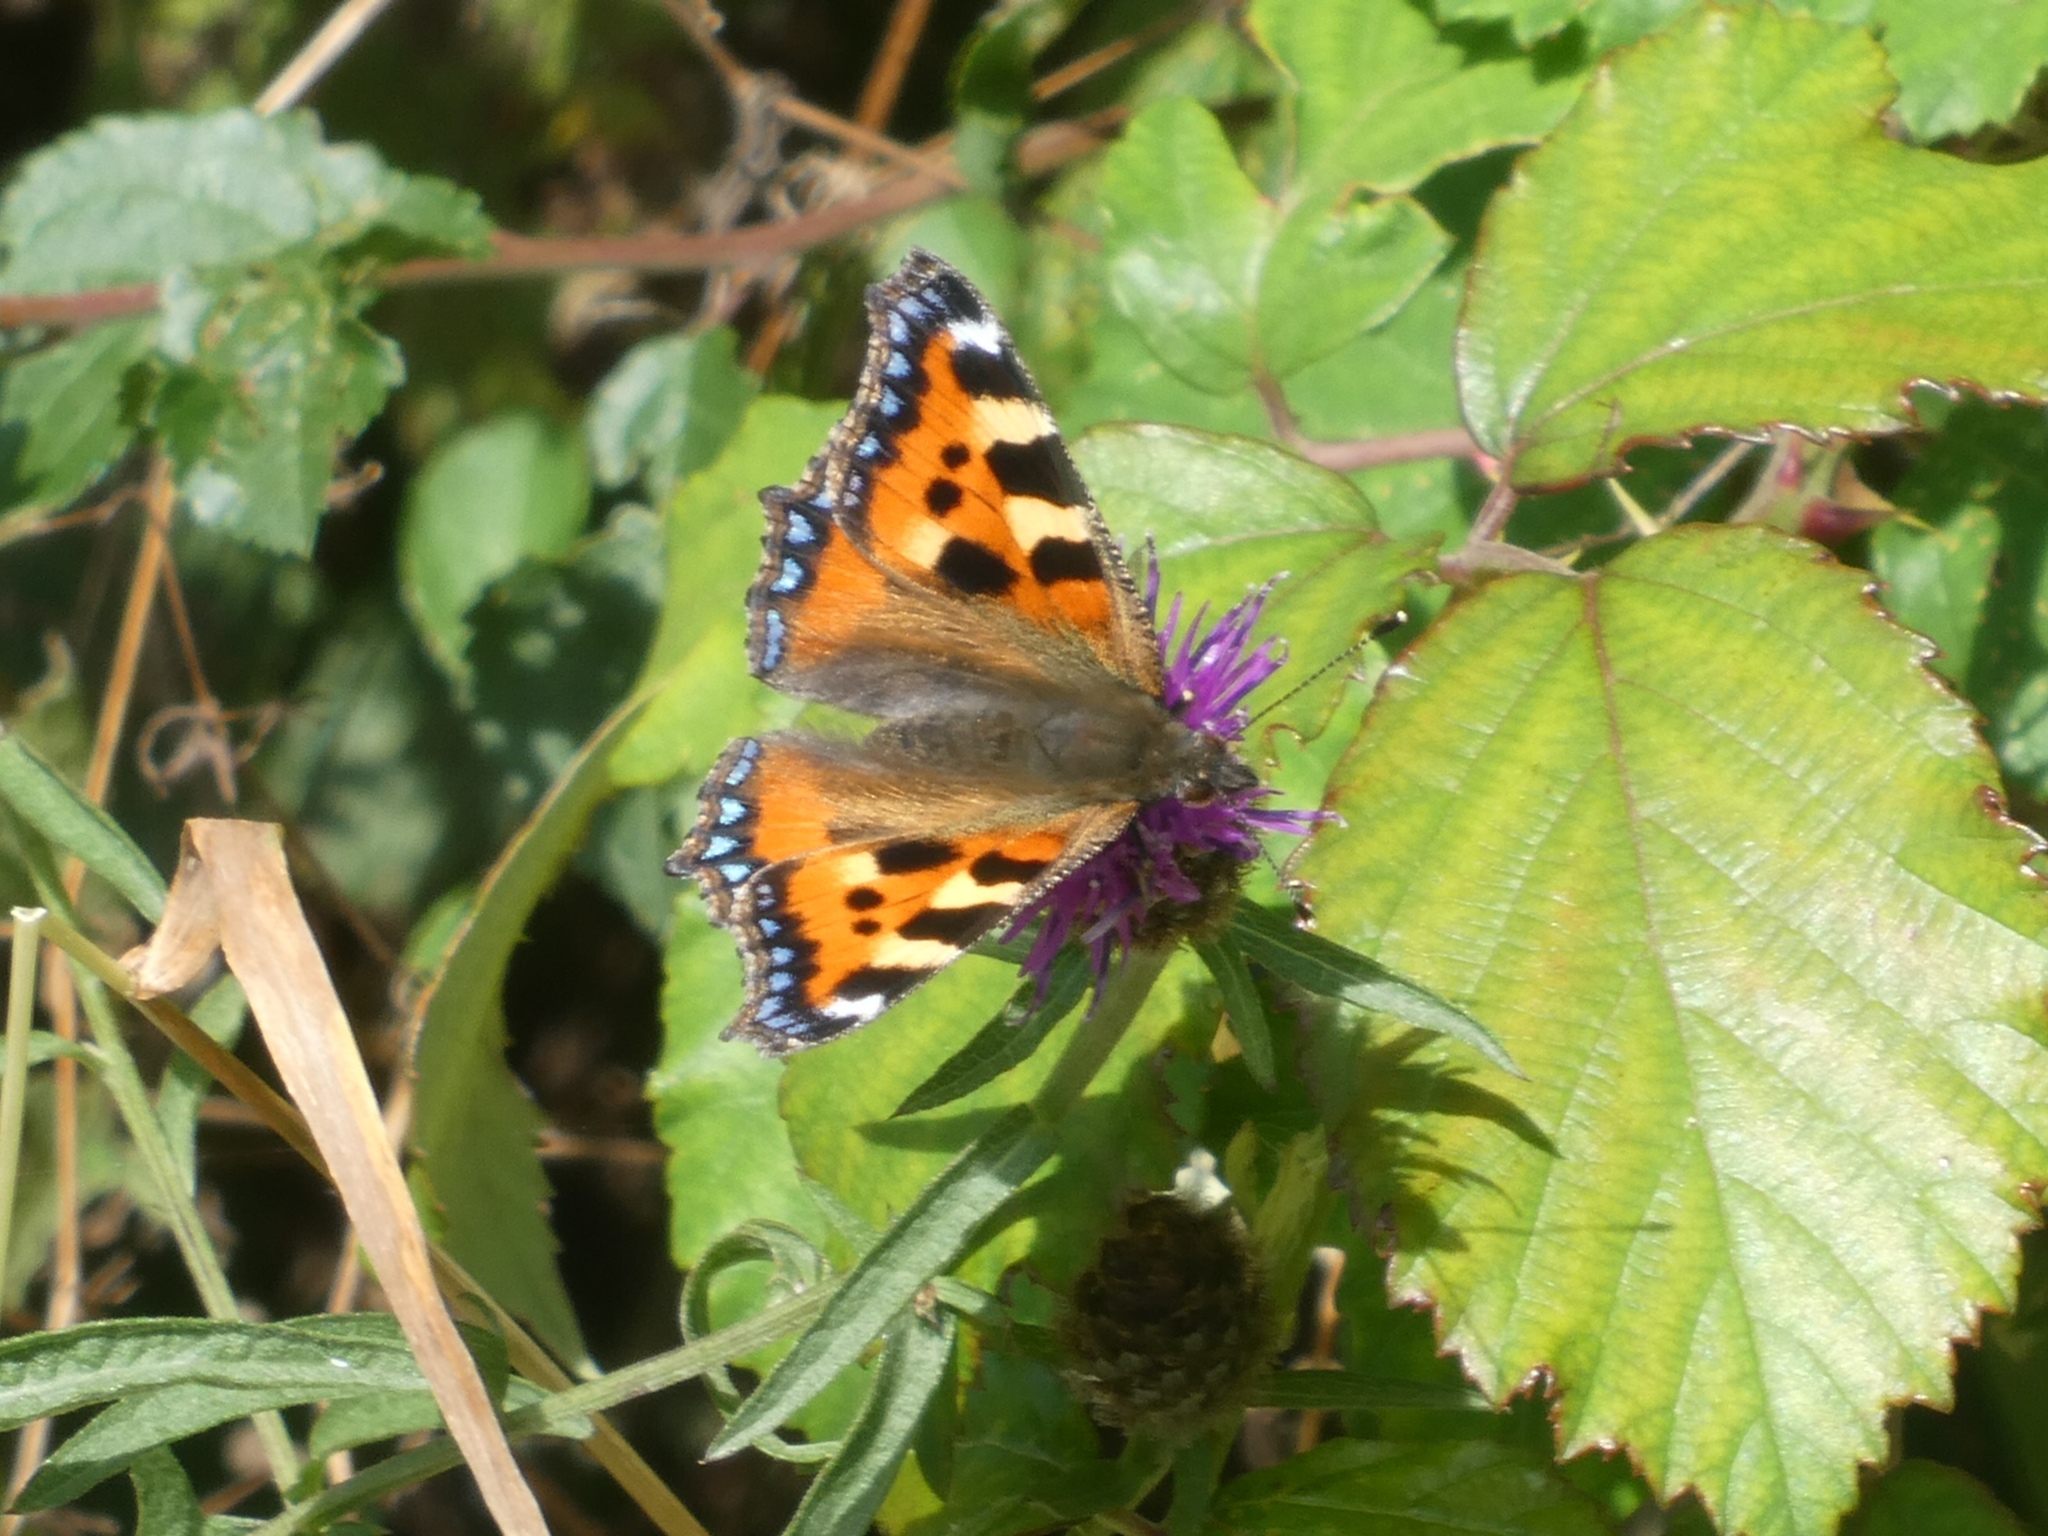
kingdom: Animalia
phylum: Arthropoda
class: Insecta
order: Lepidoptera
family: Nymphalidae
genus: Aglais
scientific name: Aglais urticae
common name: Small tortoiseshell
